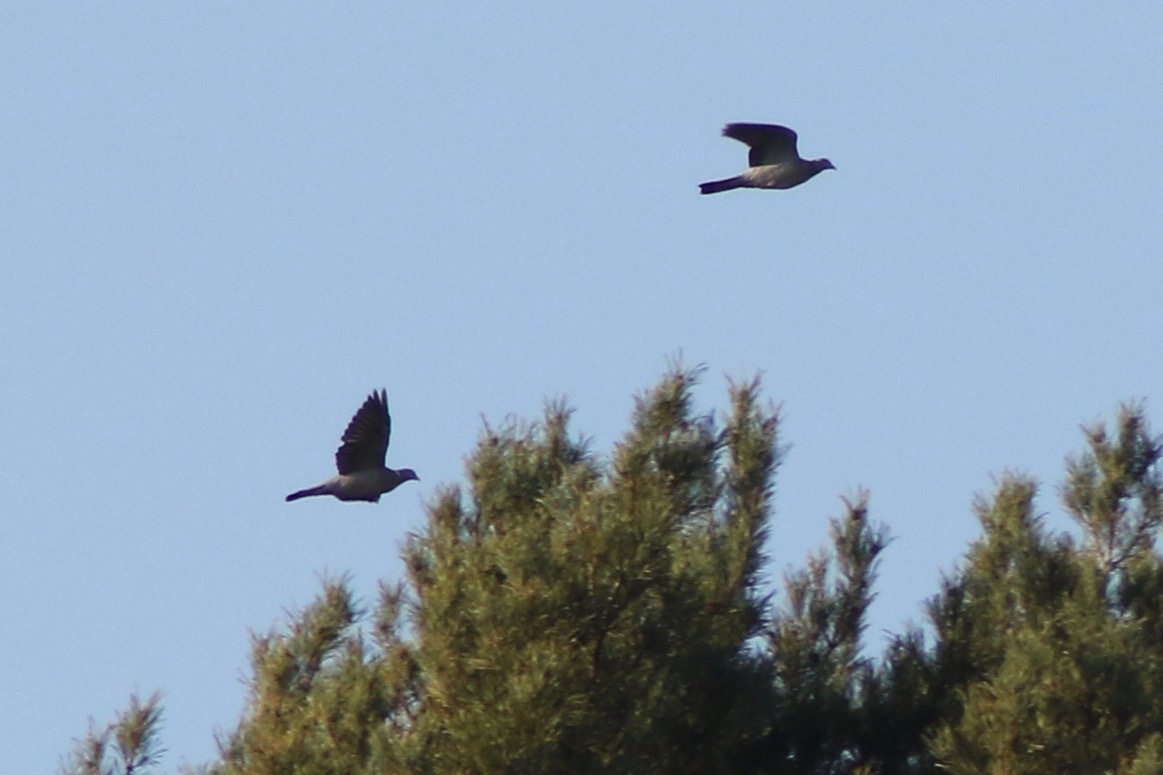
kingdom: Animalia
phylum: Chordata
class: Aves
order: Columbiformes
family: Columbidae
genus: Columba
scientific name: Columba palumbus
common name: Common wood pigeon
